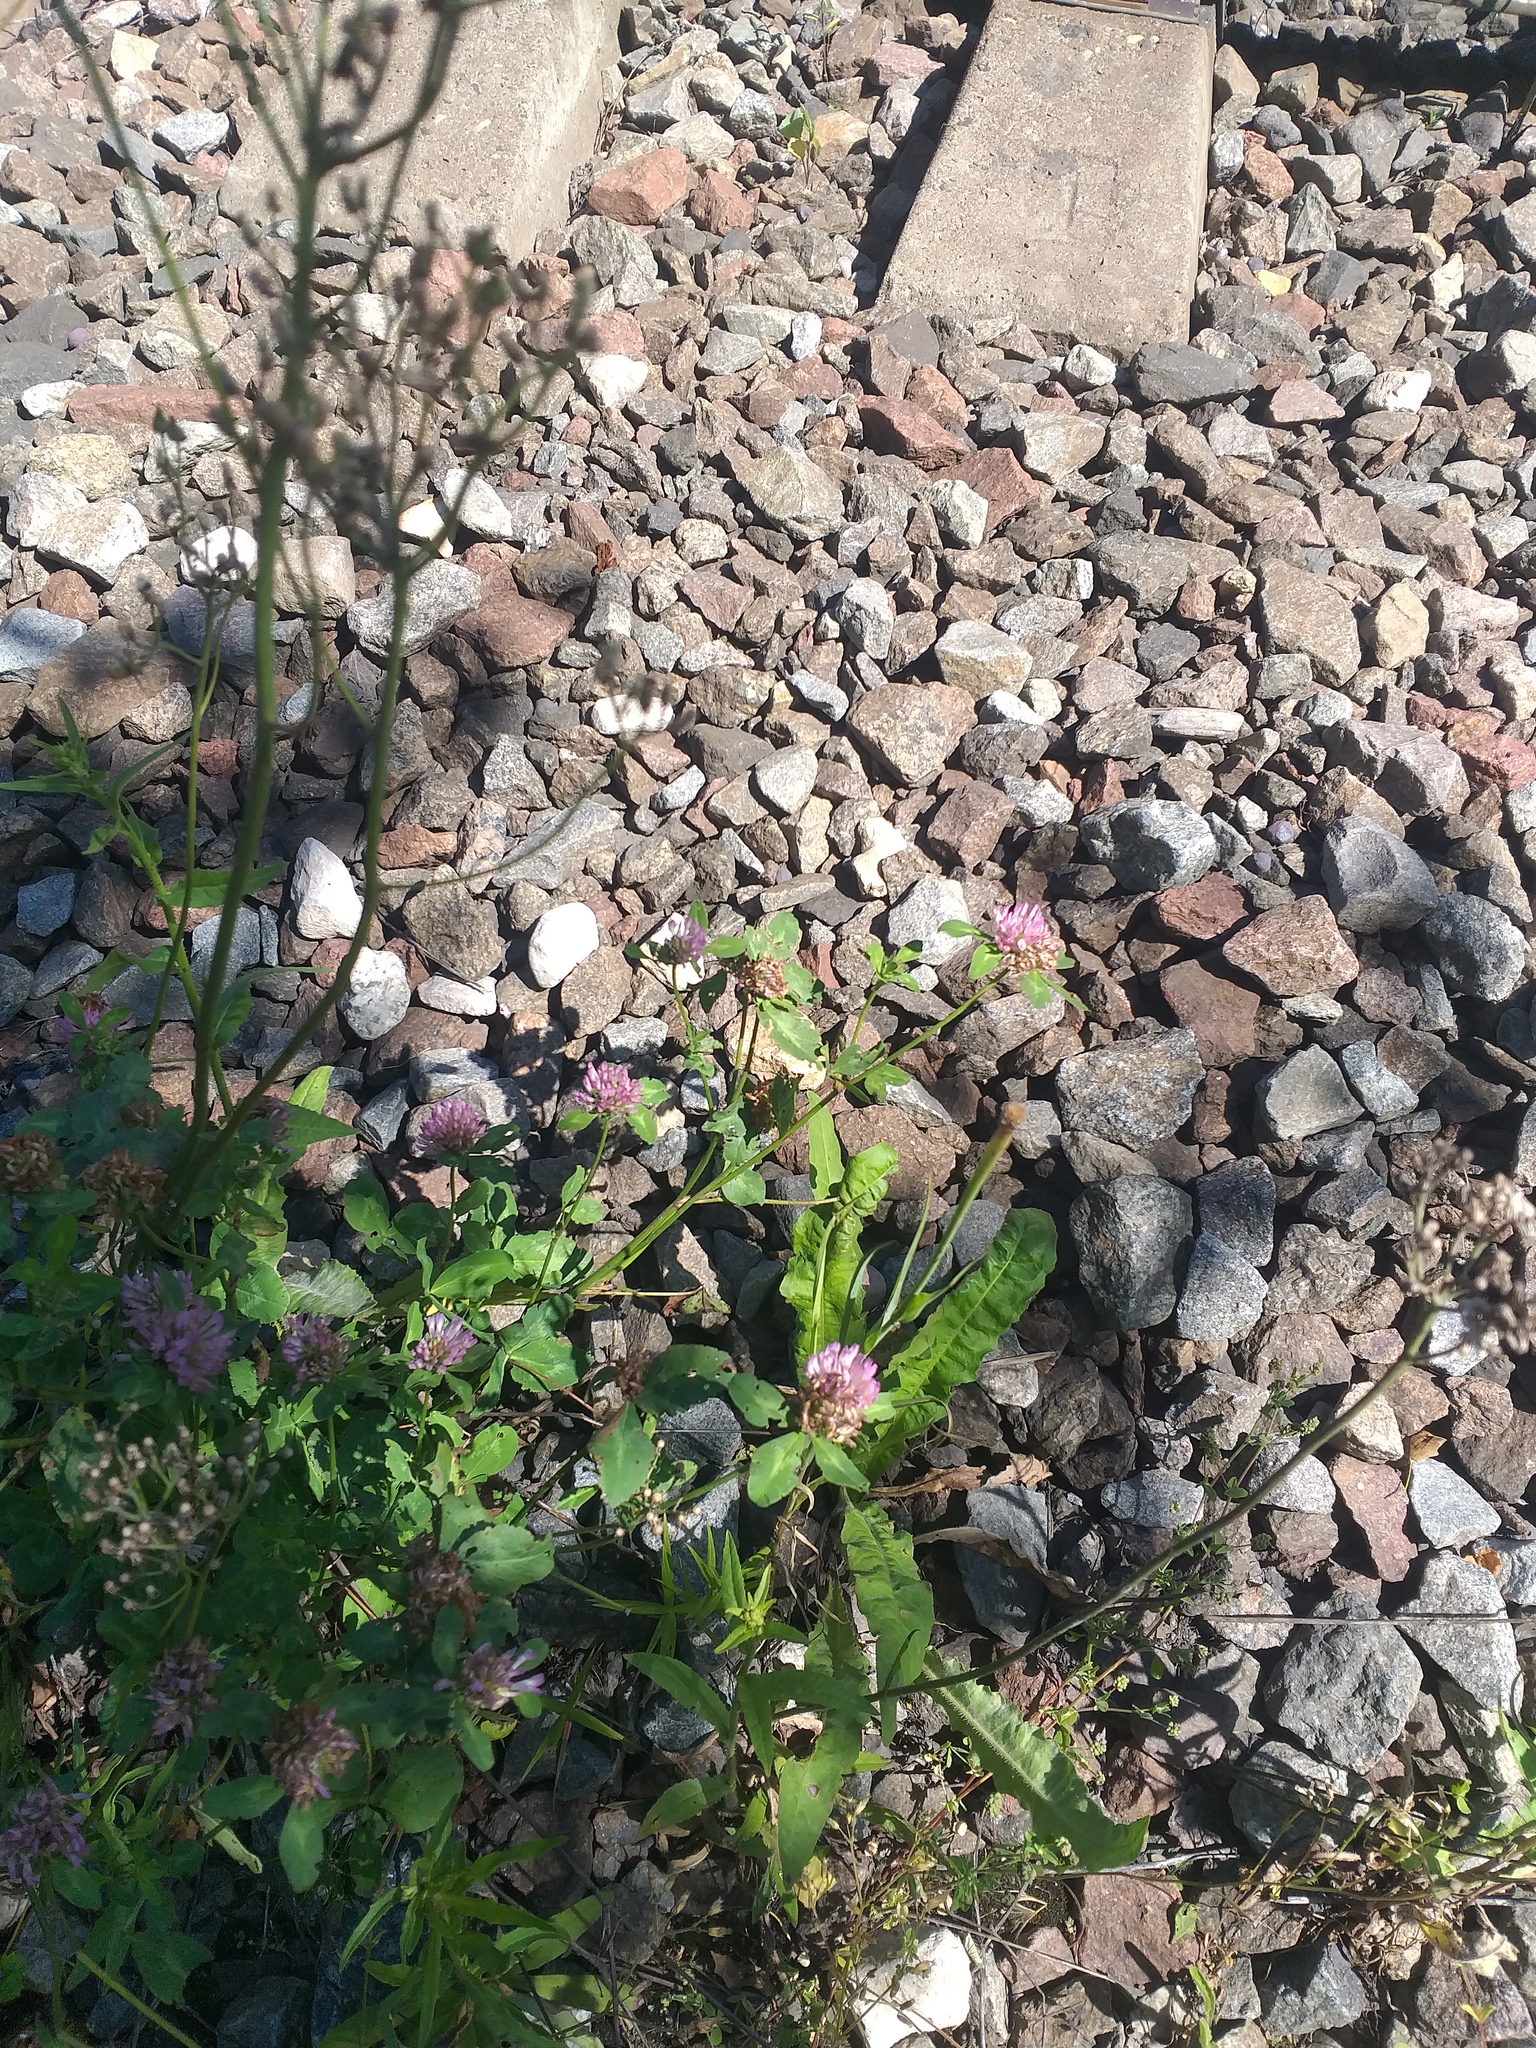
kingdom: Plantae
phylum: Tracheophyta
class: Magnoliopsida
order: Fabales
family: Fabaceae
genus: Trifolium
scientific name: Trifolium pratense
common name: Red clover
